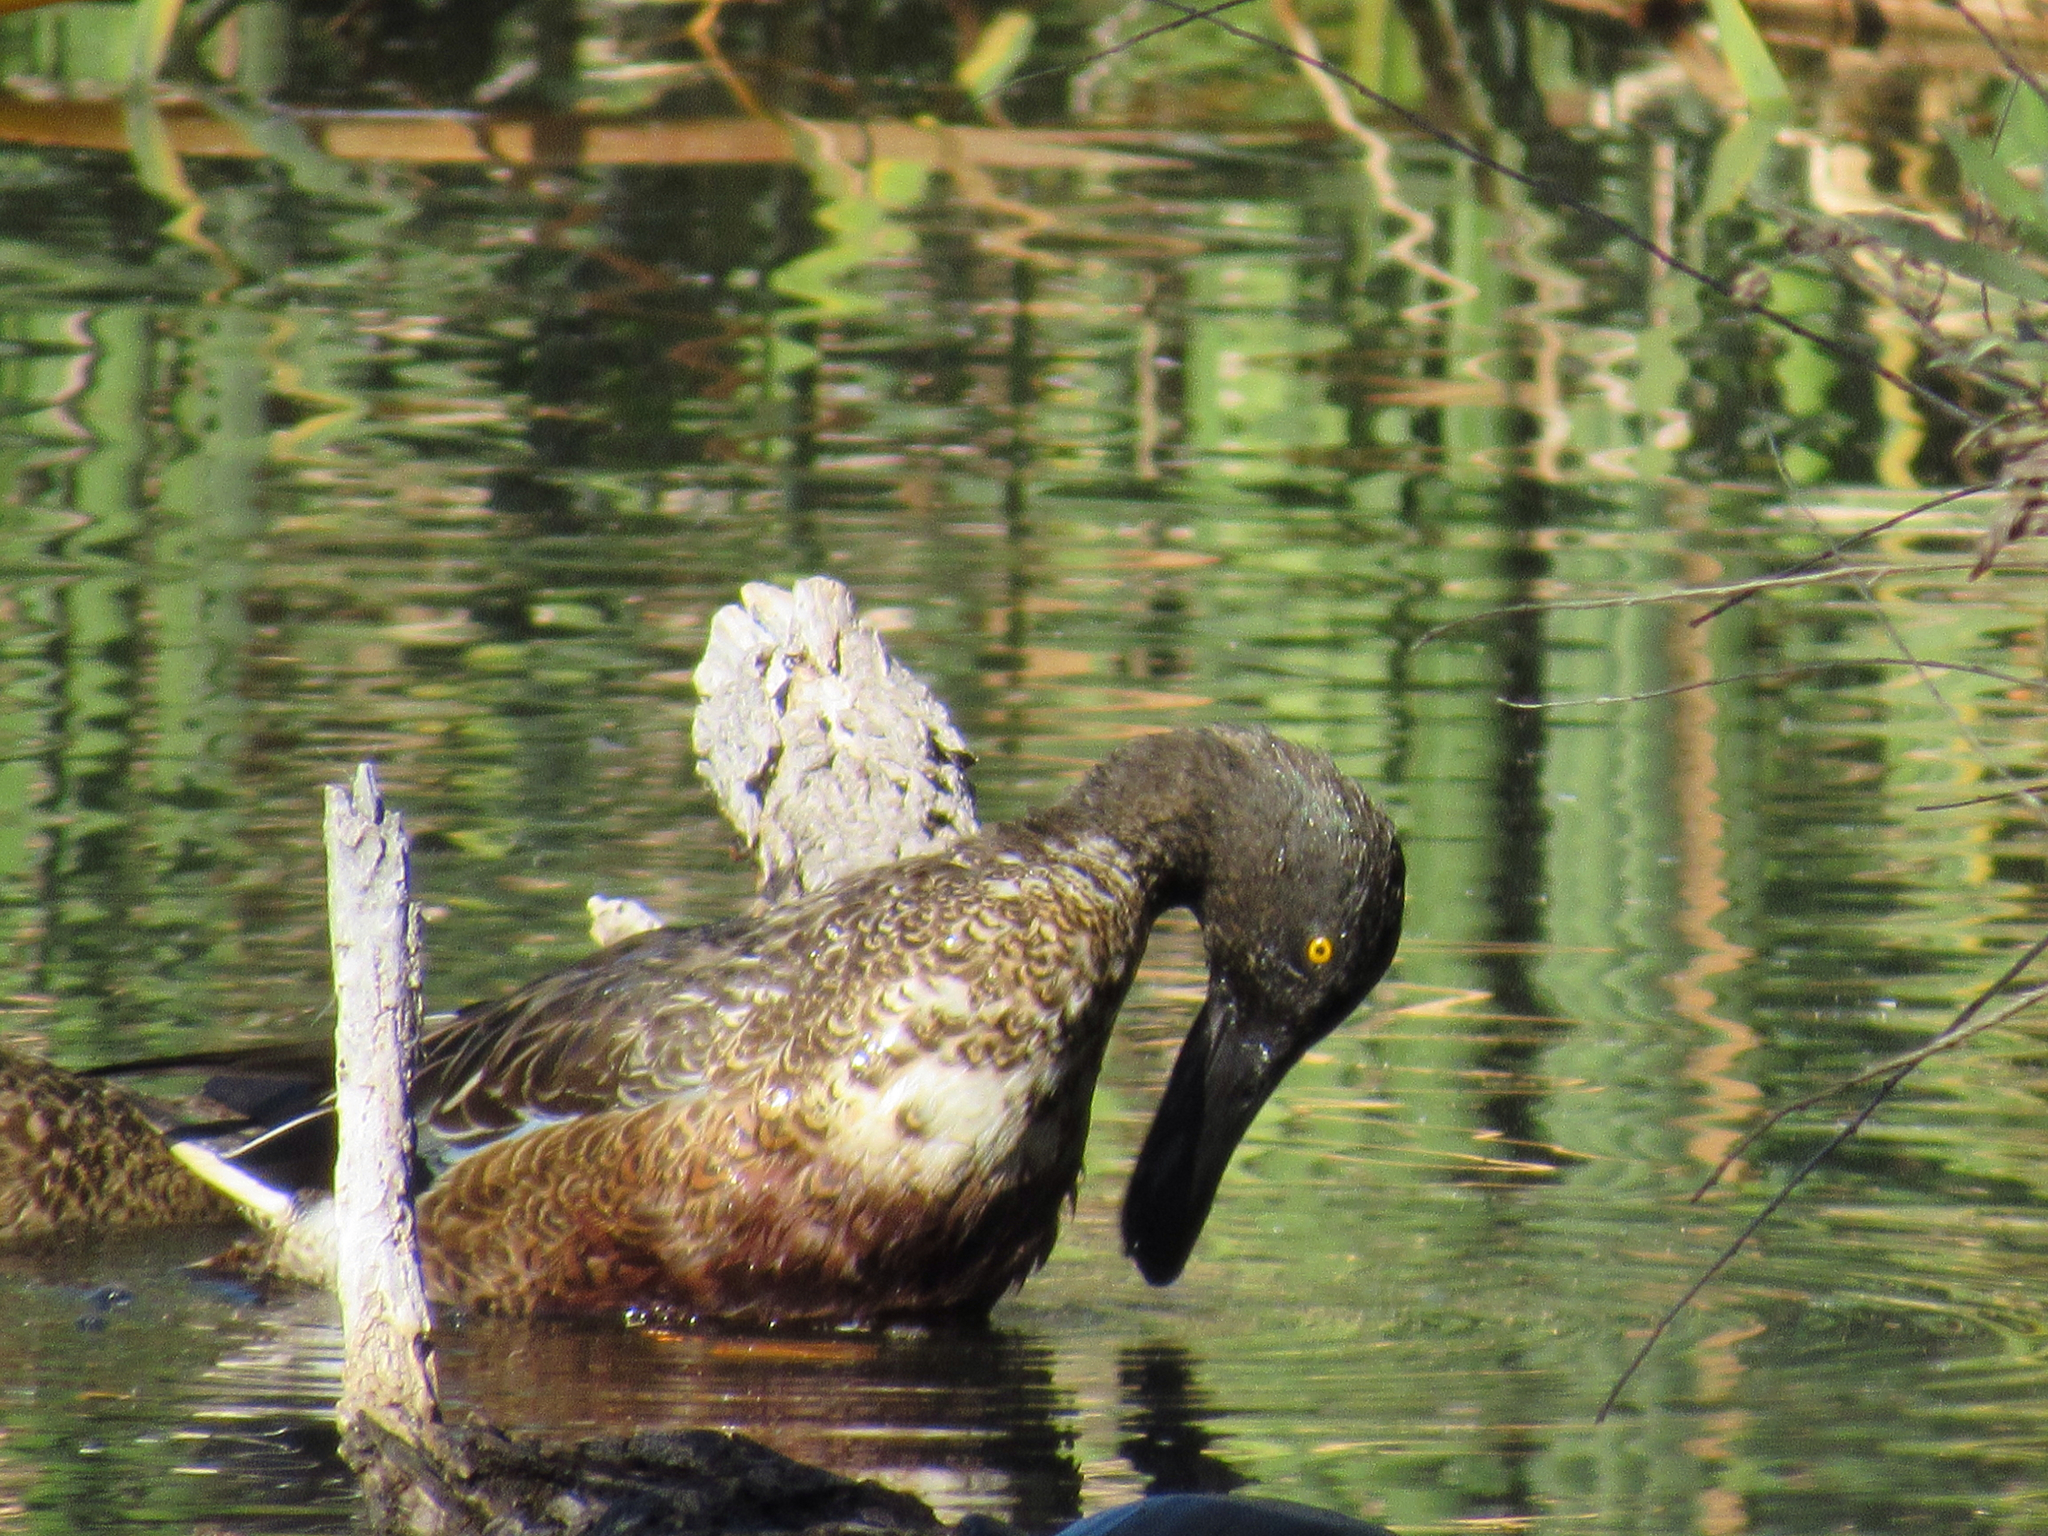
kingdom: Animalia
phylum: Chordata
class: Aves
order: Anseriformes
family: Anatidae
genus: Spatula
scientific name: Spatula clypeata
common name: Northern shoveler
